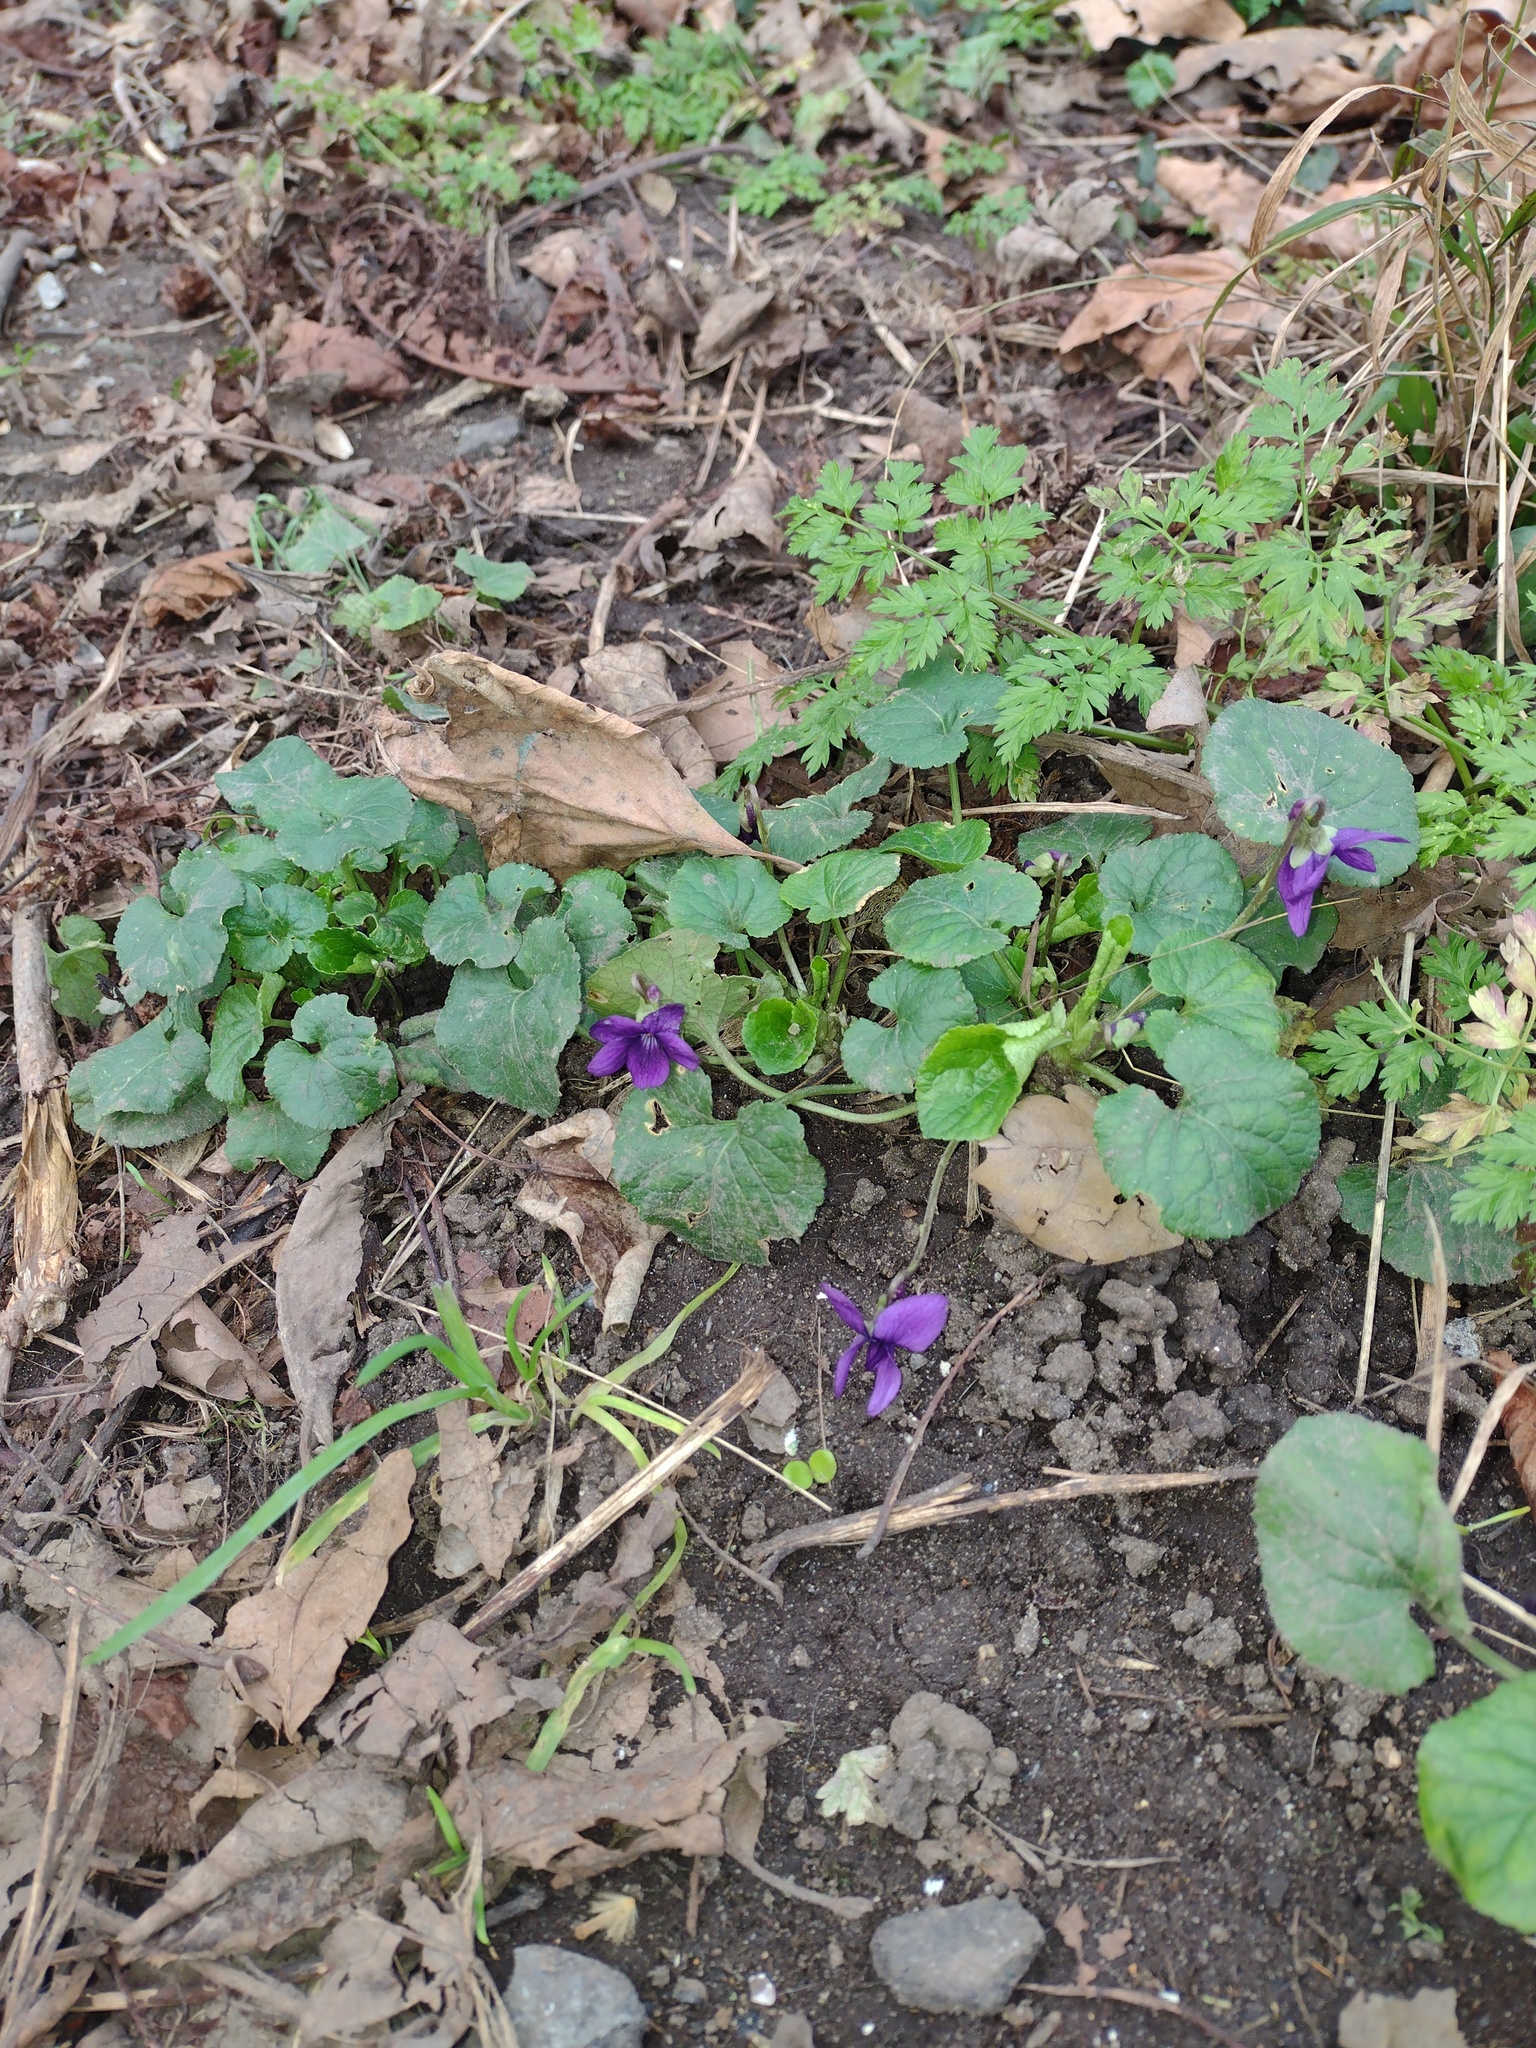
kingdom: Plantae
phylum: Tracheophyta
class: Magnoliopsida
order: Malpighiales
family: Violaceae
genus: Viola
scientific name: Viola odorata
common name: Sweet violet
